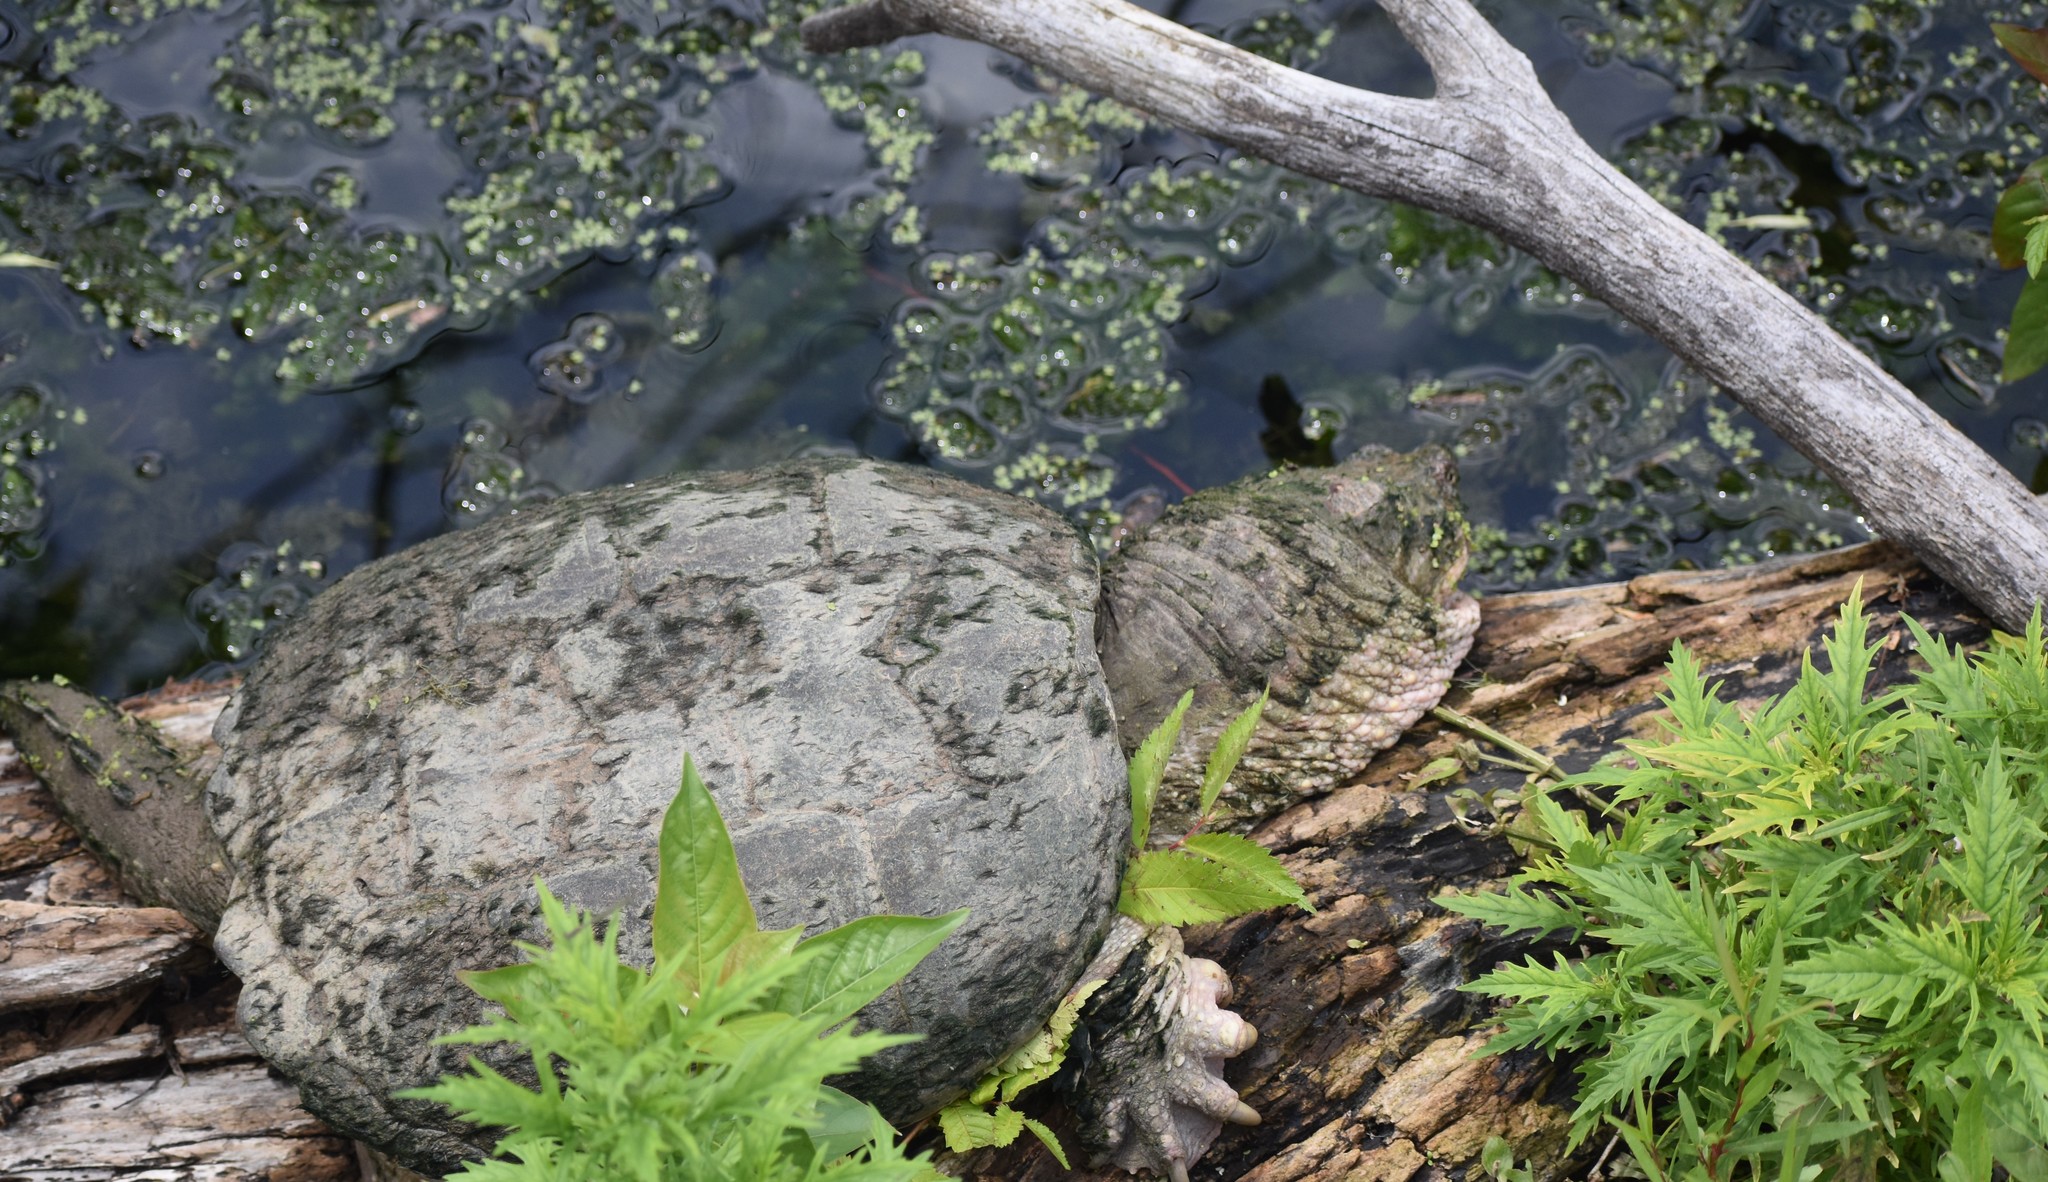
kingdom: Animalia
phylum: Chordata
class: Testudines
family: Chelydridae
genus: Chelydra
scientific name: Chelydra serpentina
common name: Common snapping turtle
